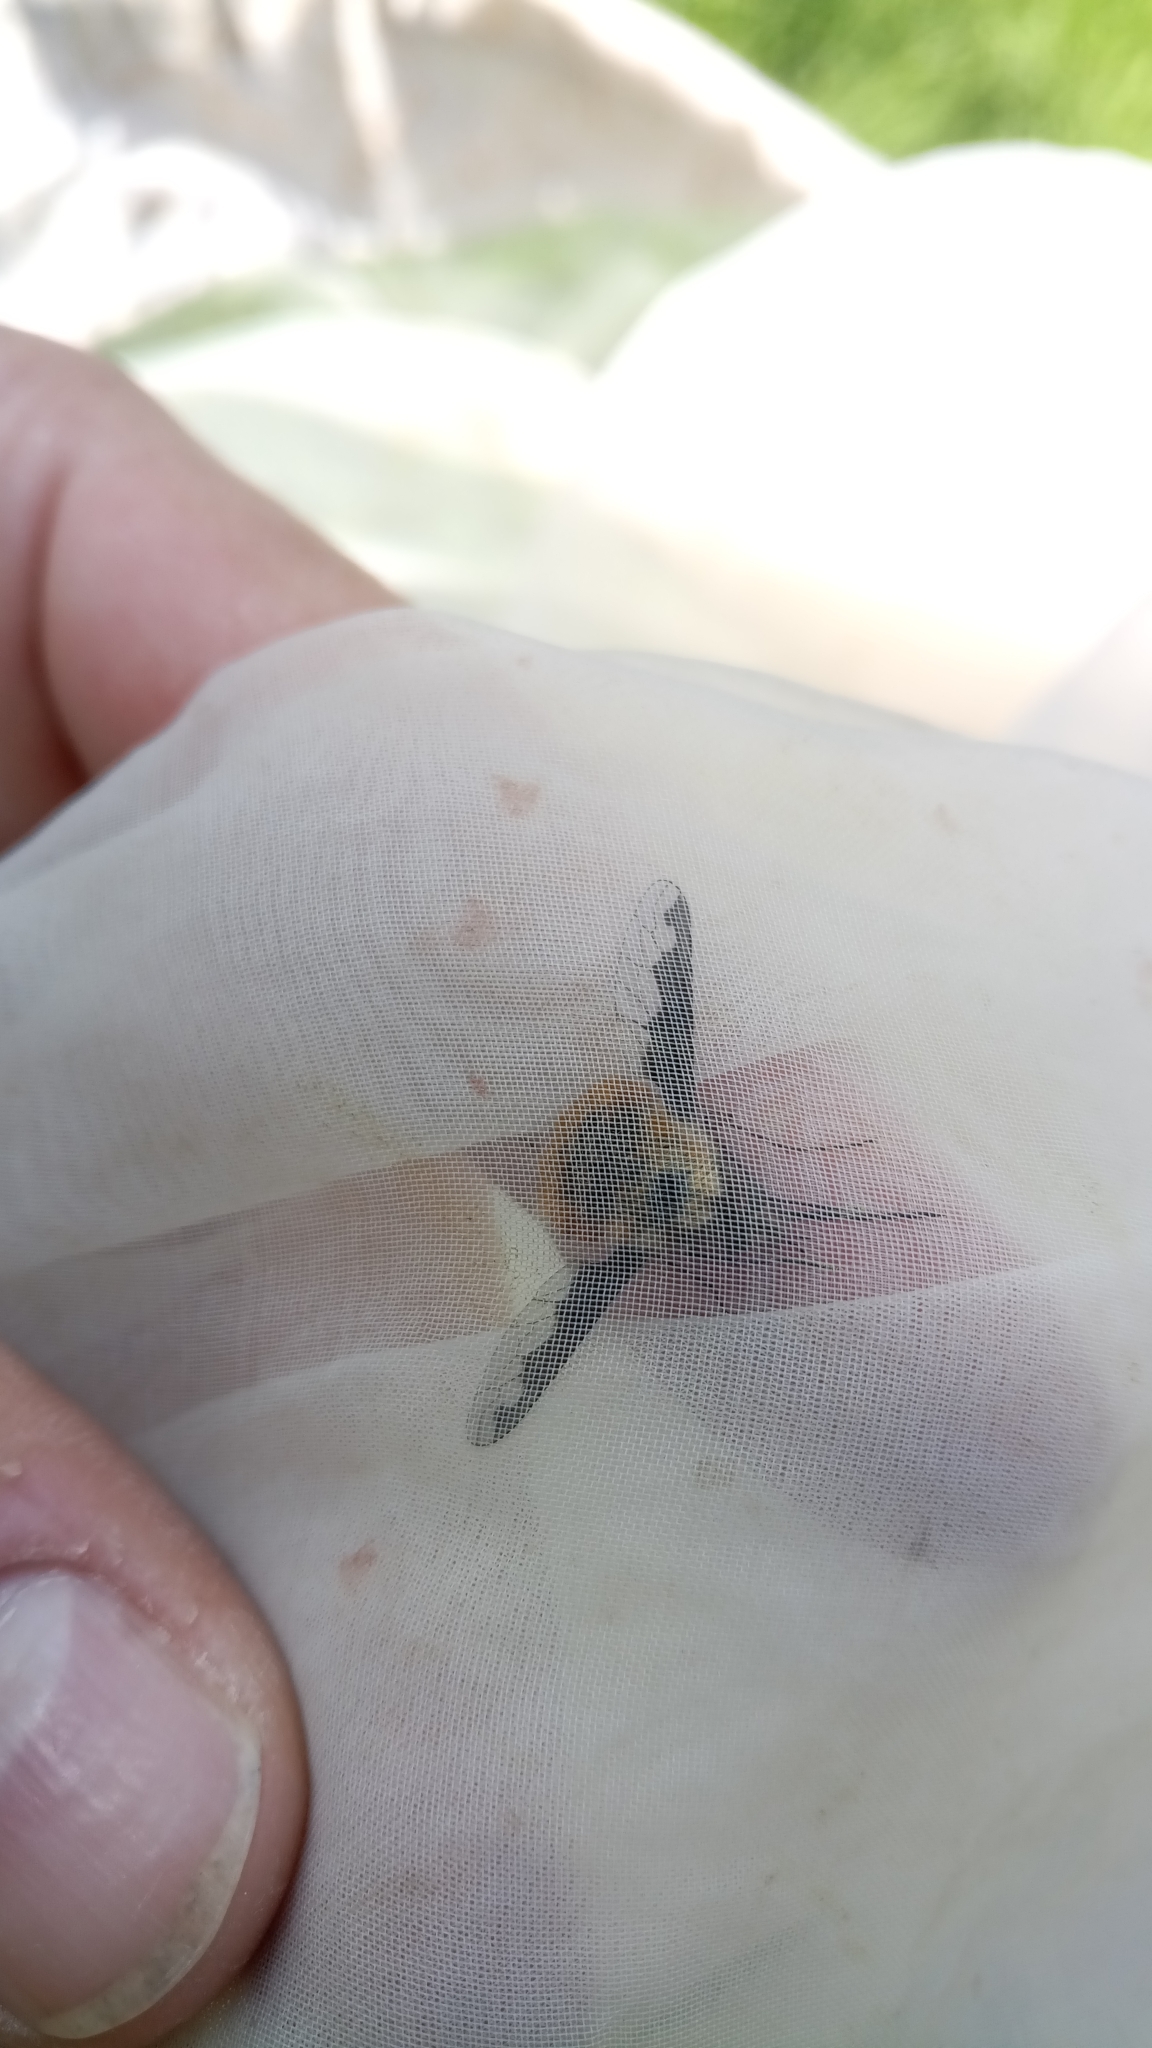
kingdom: Animalia
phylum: Arthropoda
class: Insecta
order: Diptera
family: Bombyliidae
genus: Bombylius
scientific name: Bombylius major
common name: Bee fly
